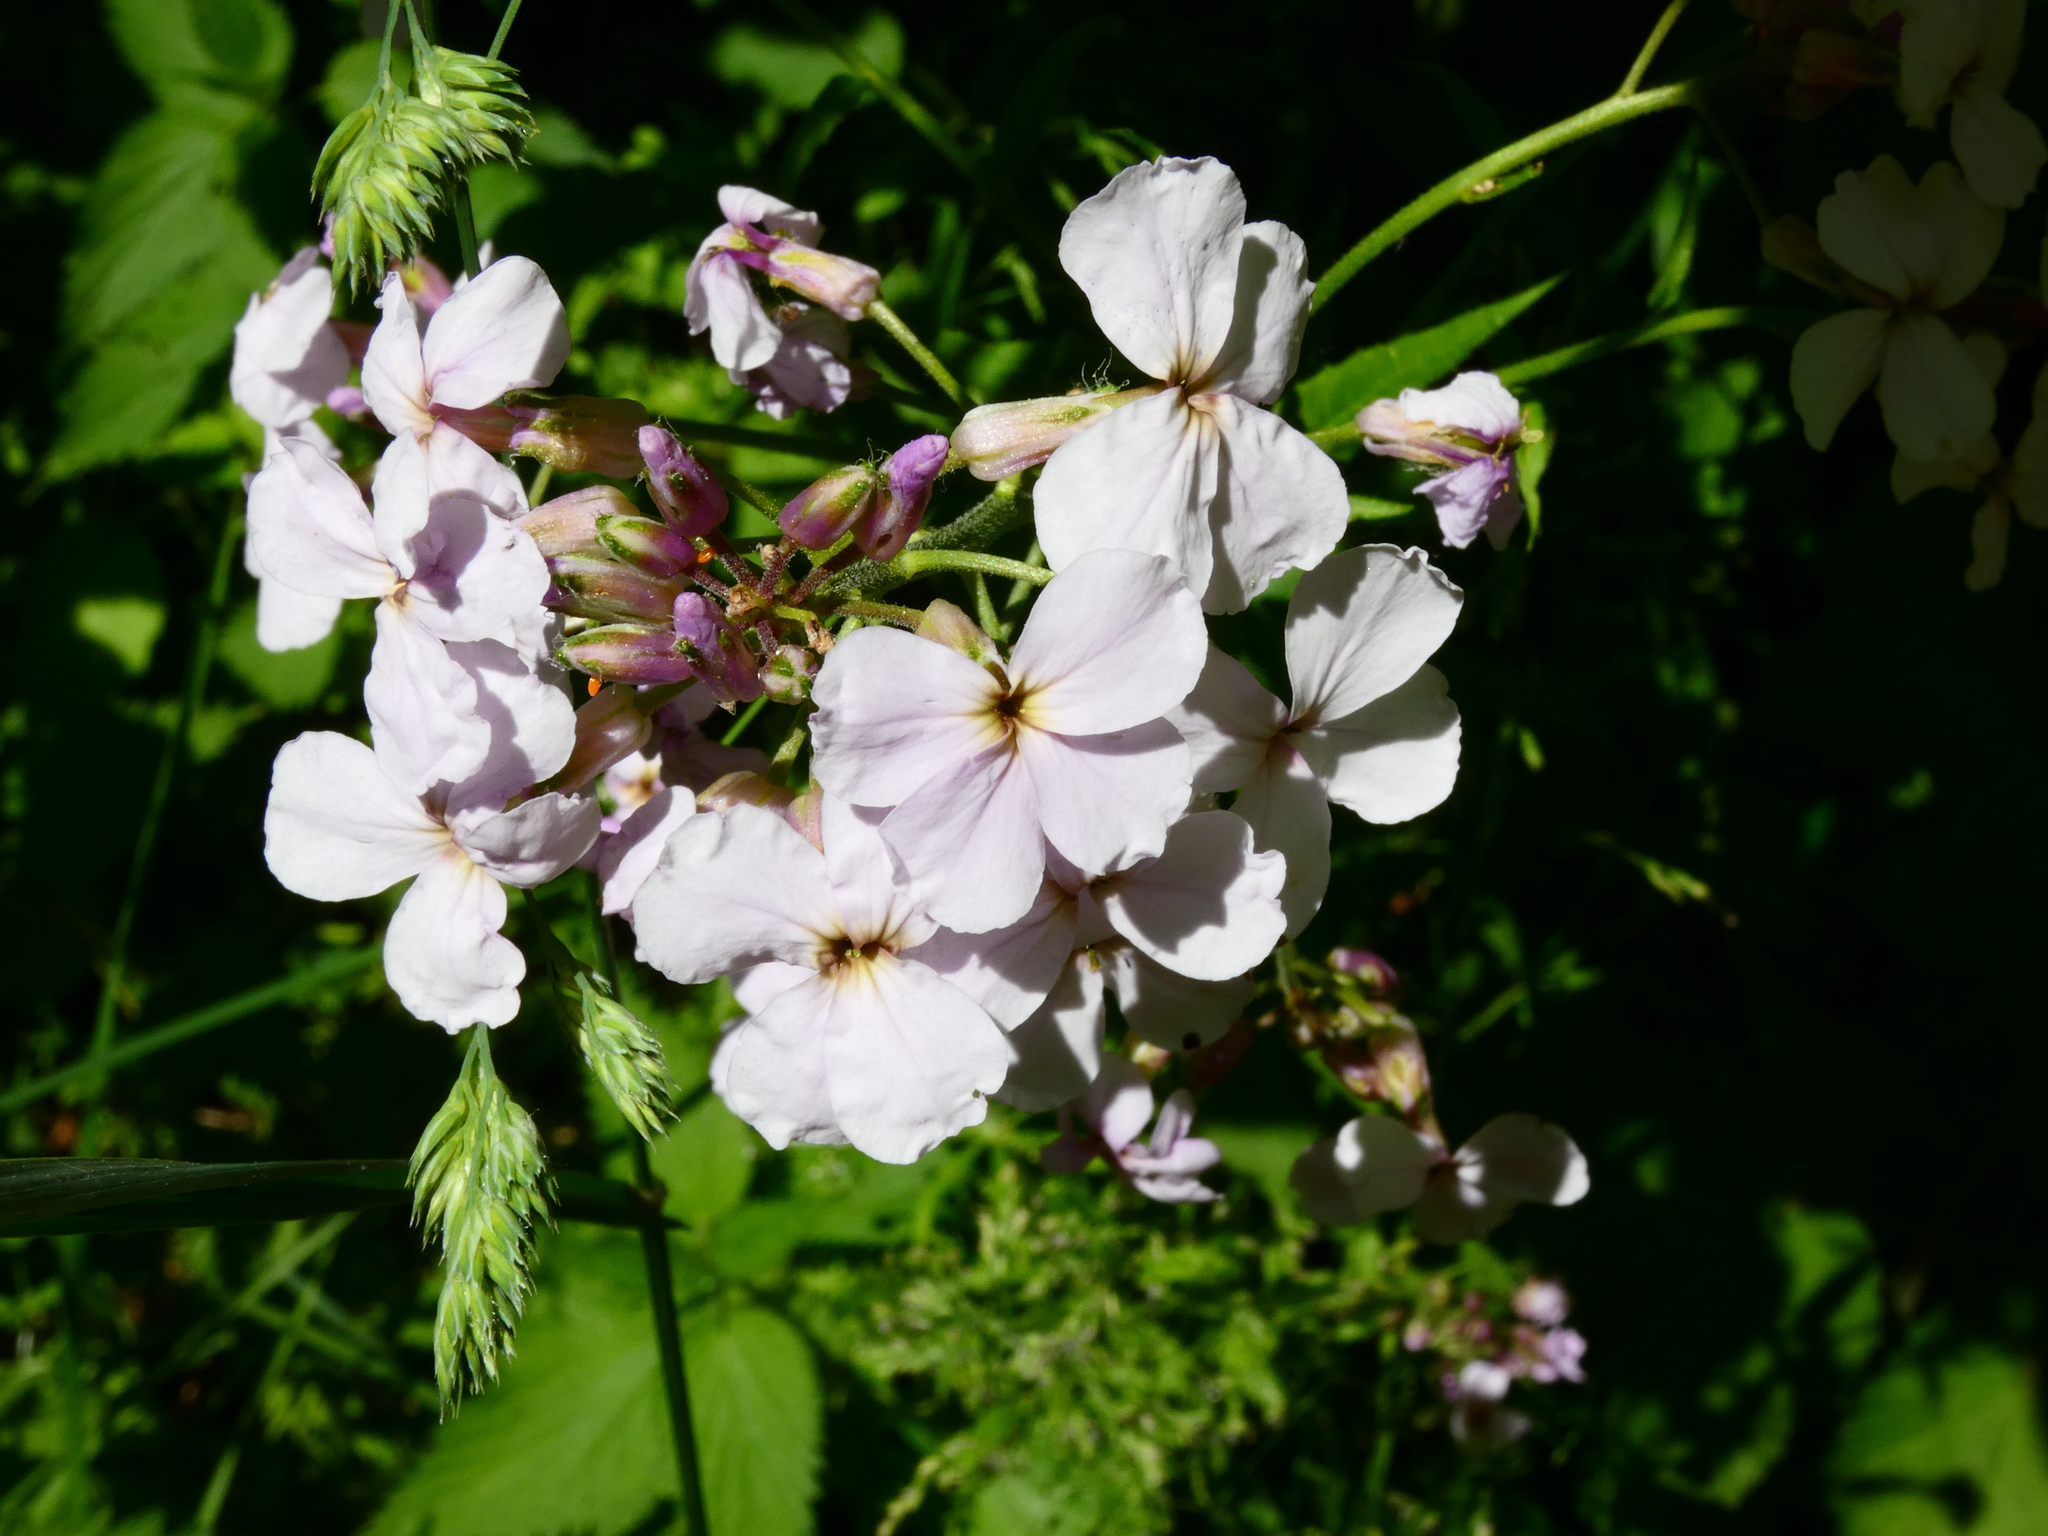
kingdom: Plantae
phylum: Tracheophyta
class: Magnoliopsida
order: Brassicales
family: Brassicaceae
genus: Hesperis
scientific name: Hesperis matronalis
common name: Dame's-violet
